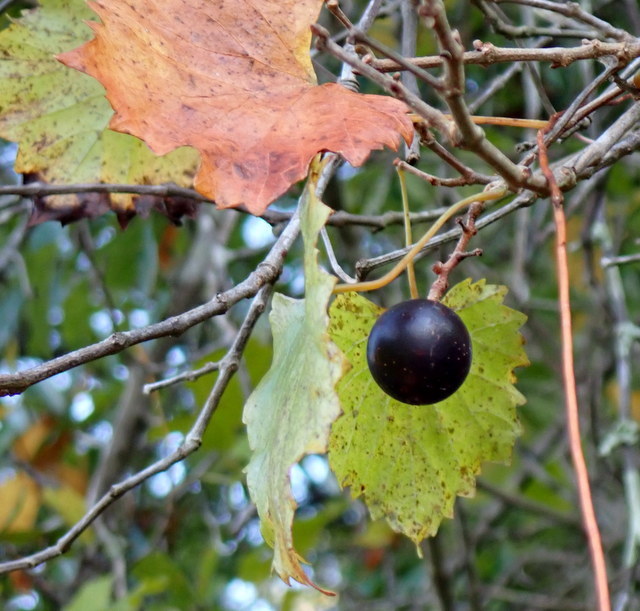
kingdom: Plantae
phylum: Tracheophyta
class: Magnoliopsida
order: Vitales
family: Vitaceae
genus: Vitis
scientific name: Vitis rotundifolia
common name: Muscadine grape
